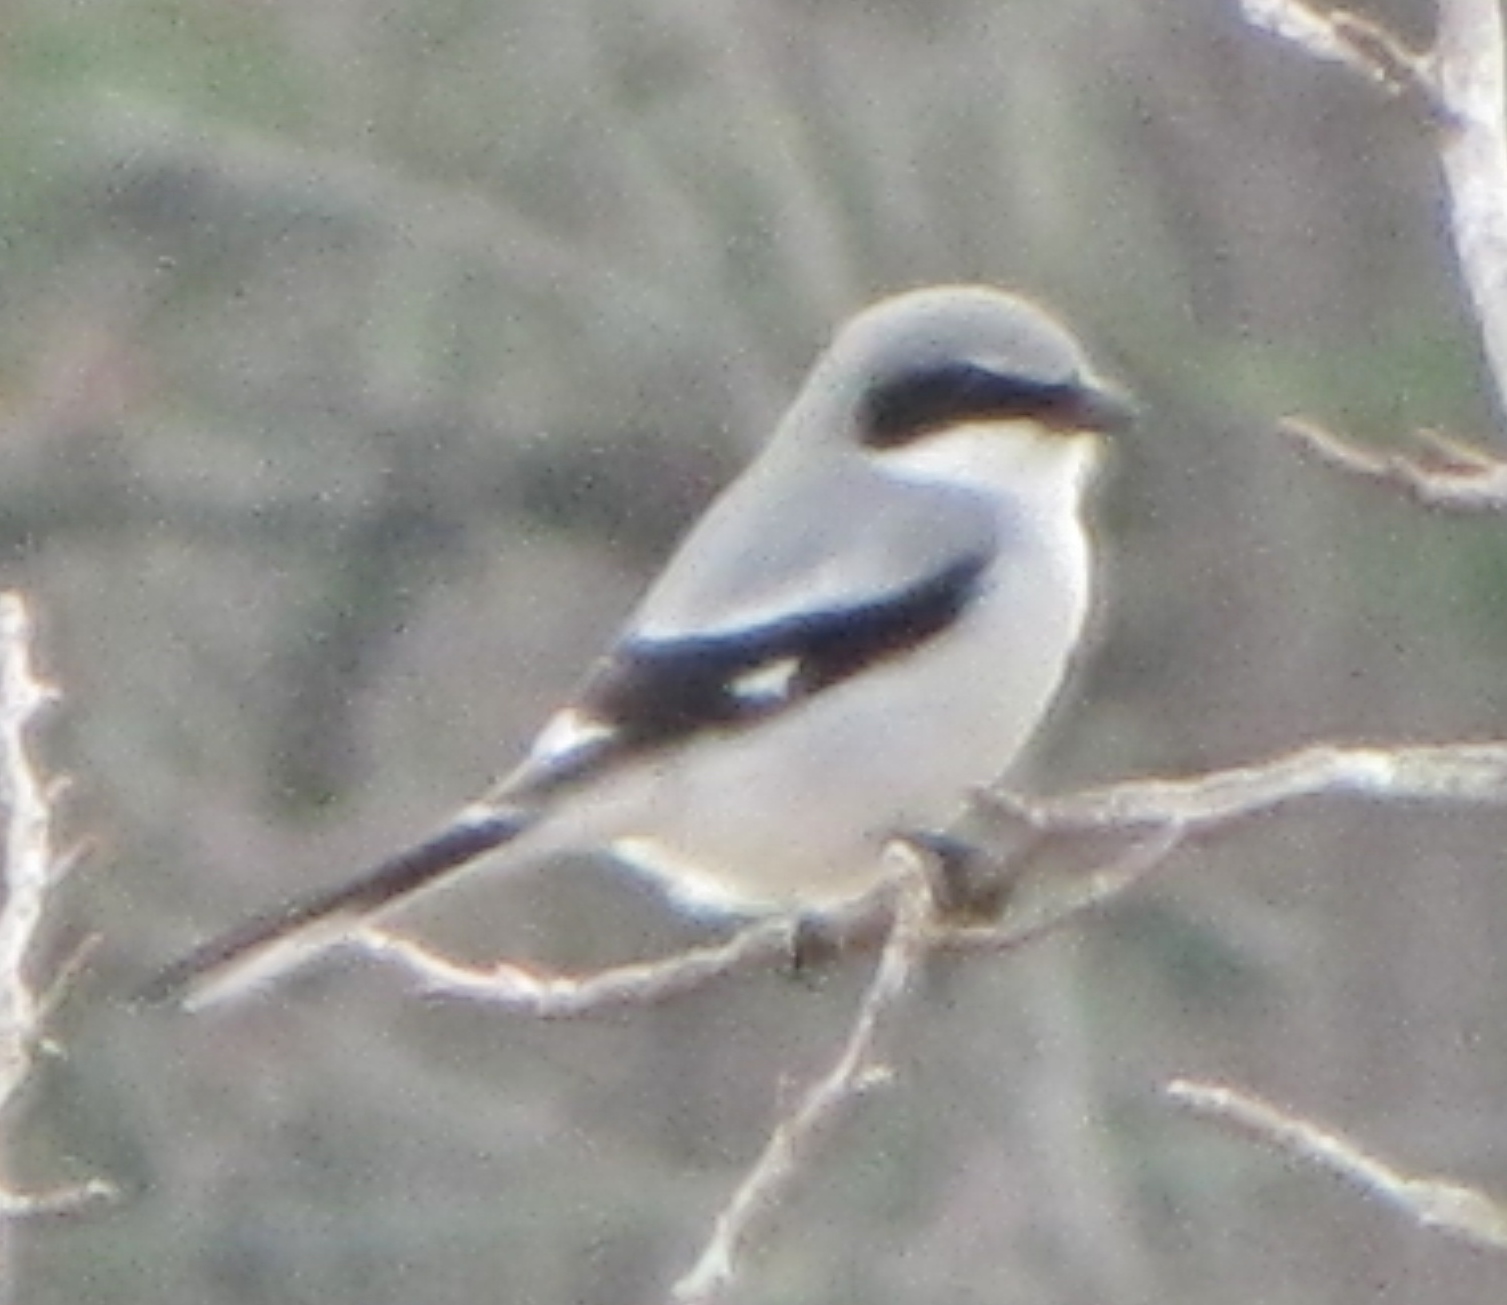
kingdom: Animalia
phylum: Chordata
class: Aves
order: Passeriformes
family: Laniidae
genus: Lanius
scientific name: Lanius ludovicianus
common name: Loggerhead shrike
